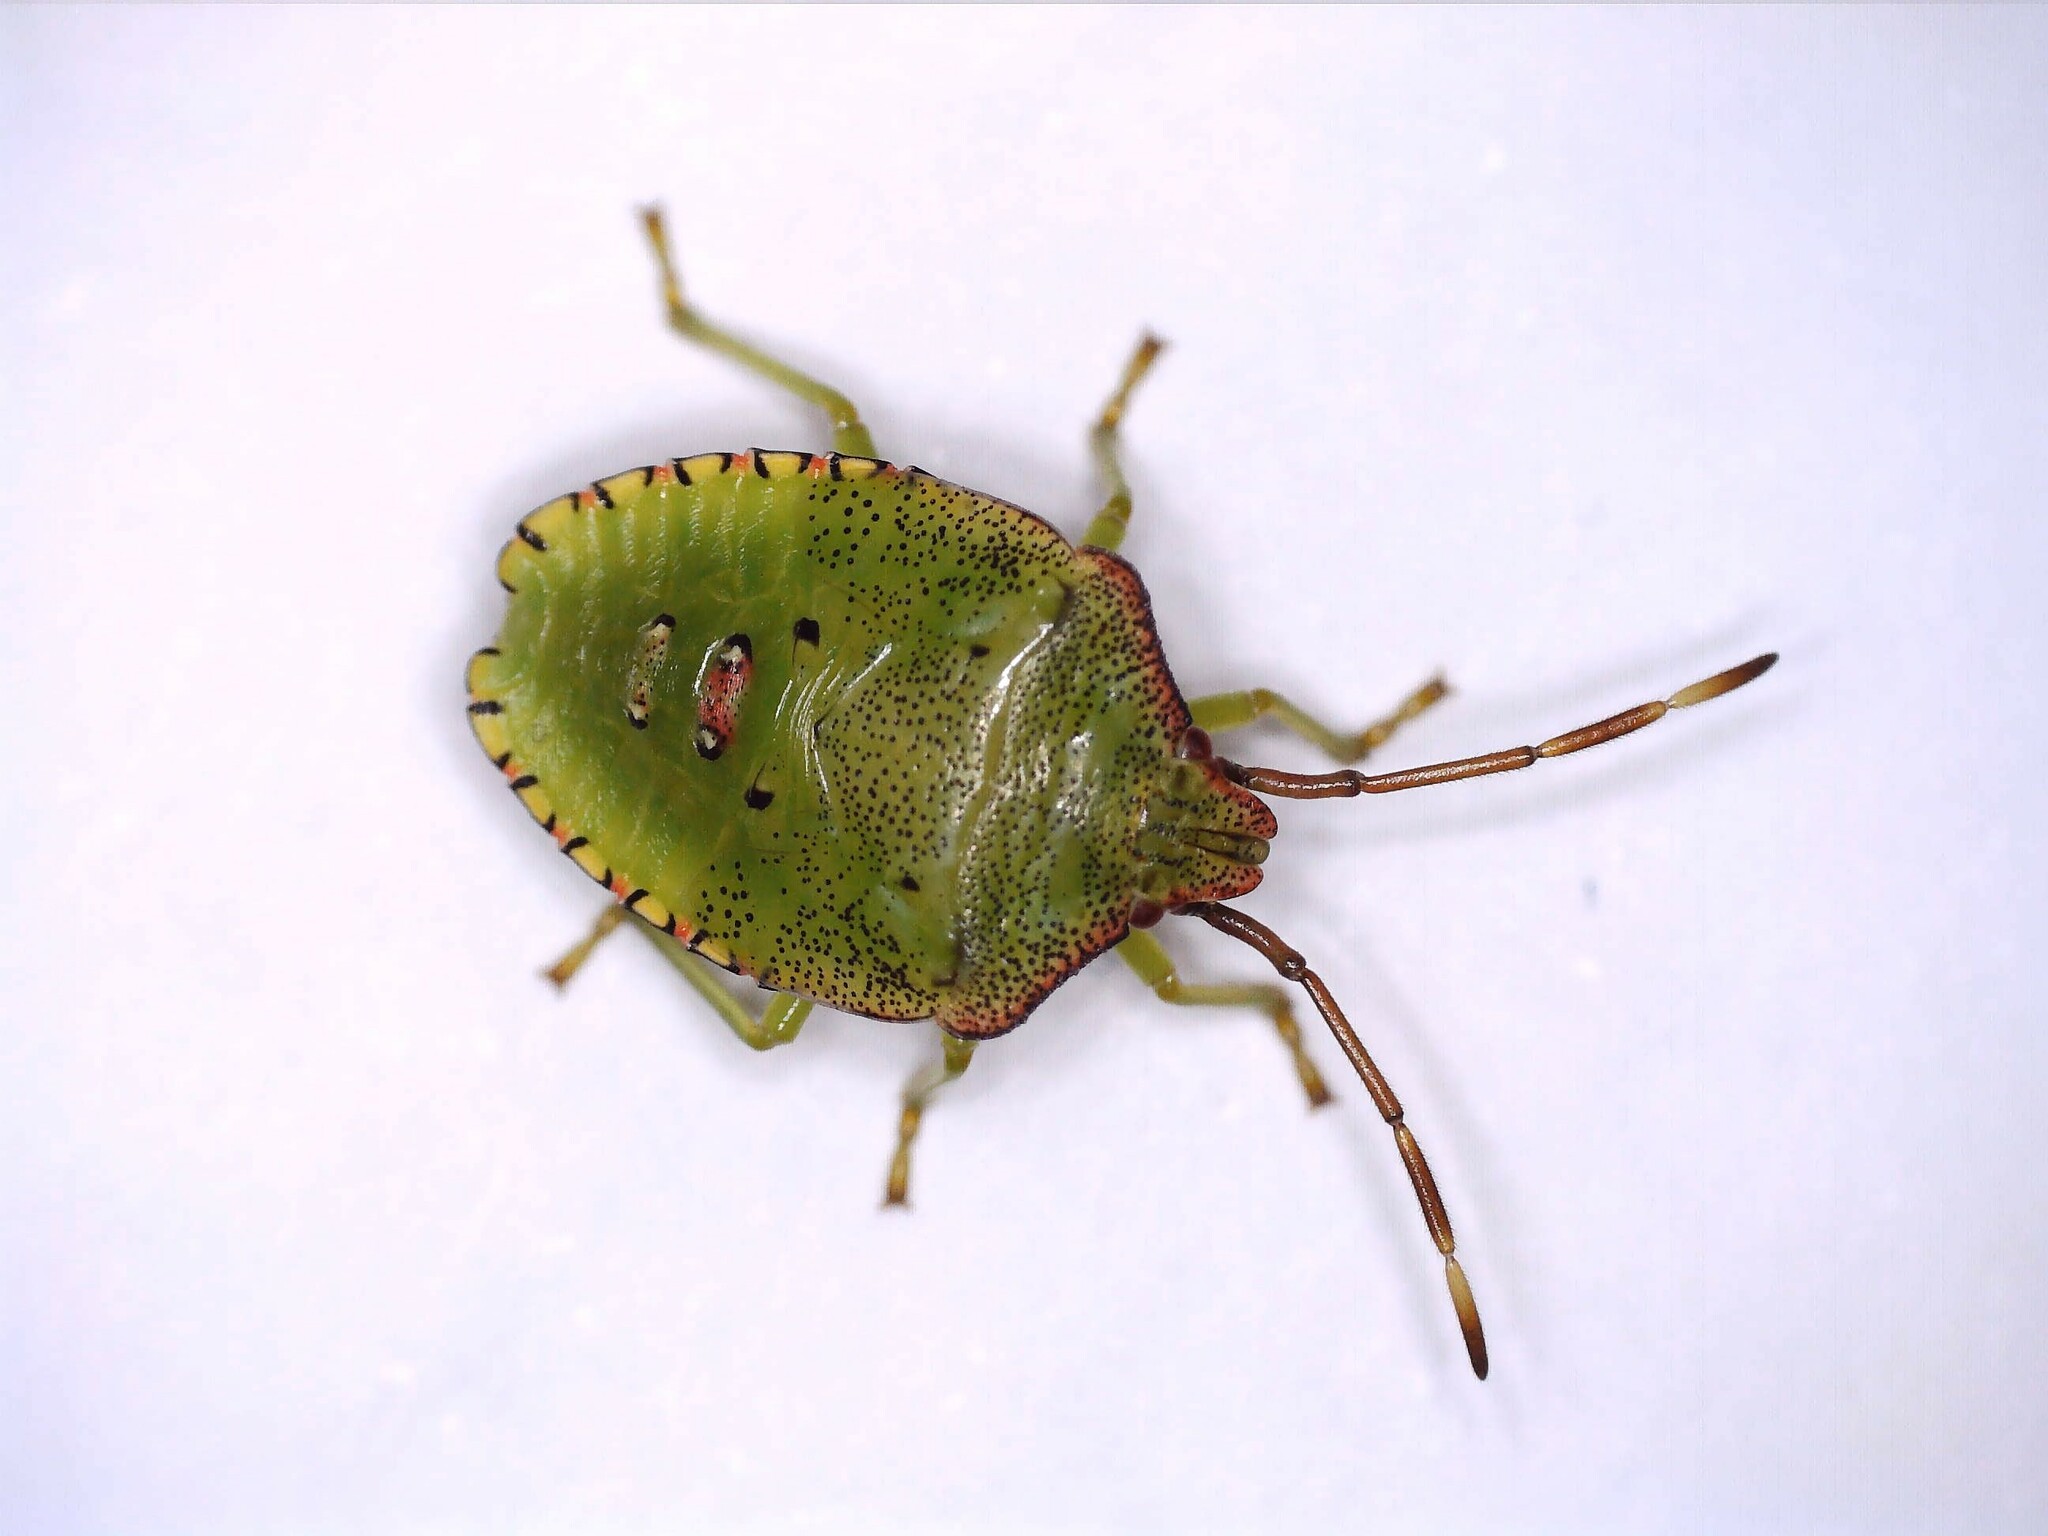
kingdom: Animalia
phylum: Arthropoda
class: Insecta
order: Hemiptera
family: Acanthosomatidae
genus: Acanthosoma
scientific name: Acanthosoma haemorrhoidale
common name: Hawthorn shieldbug
